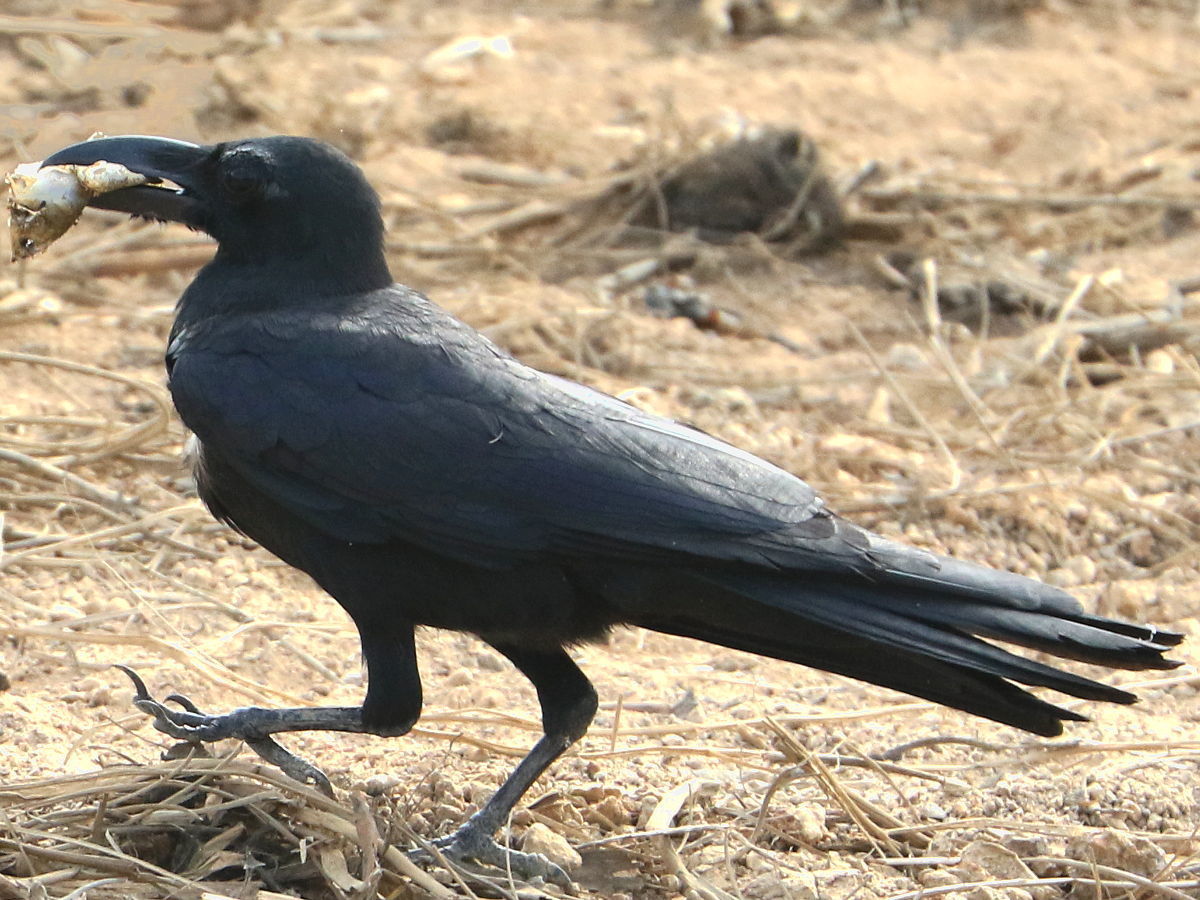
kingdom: Animalia
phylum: Chordata
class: Aves
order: Passeriformes
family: Corvidae
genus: Corvus
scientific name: Corvus macrorhynchos
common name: Large-billed crow
